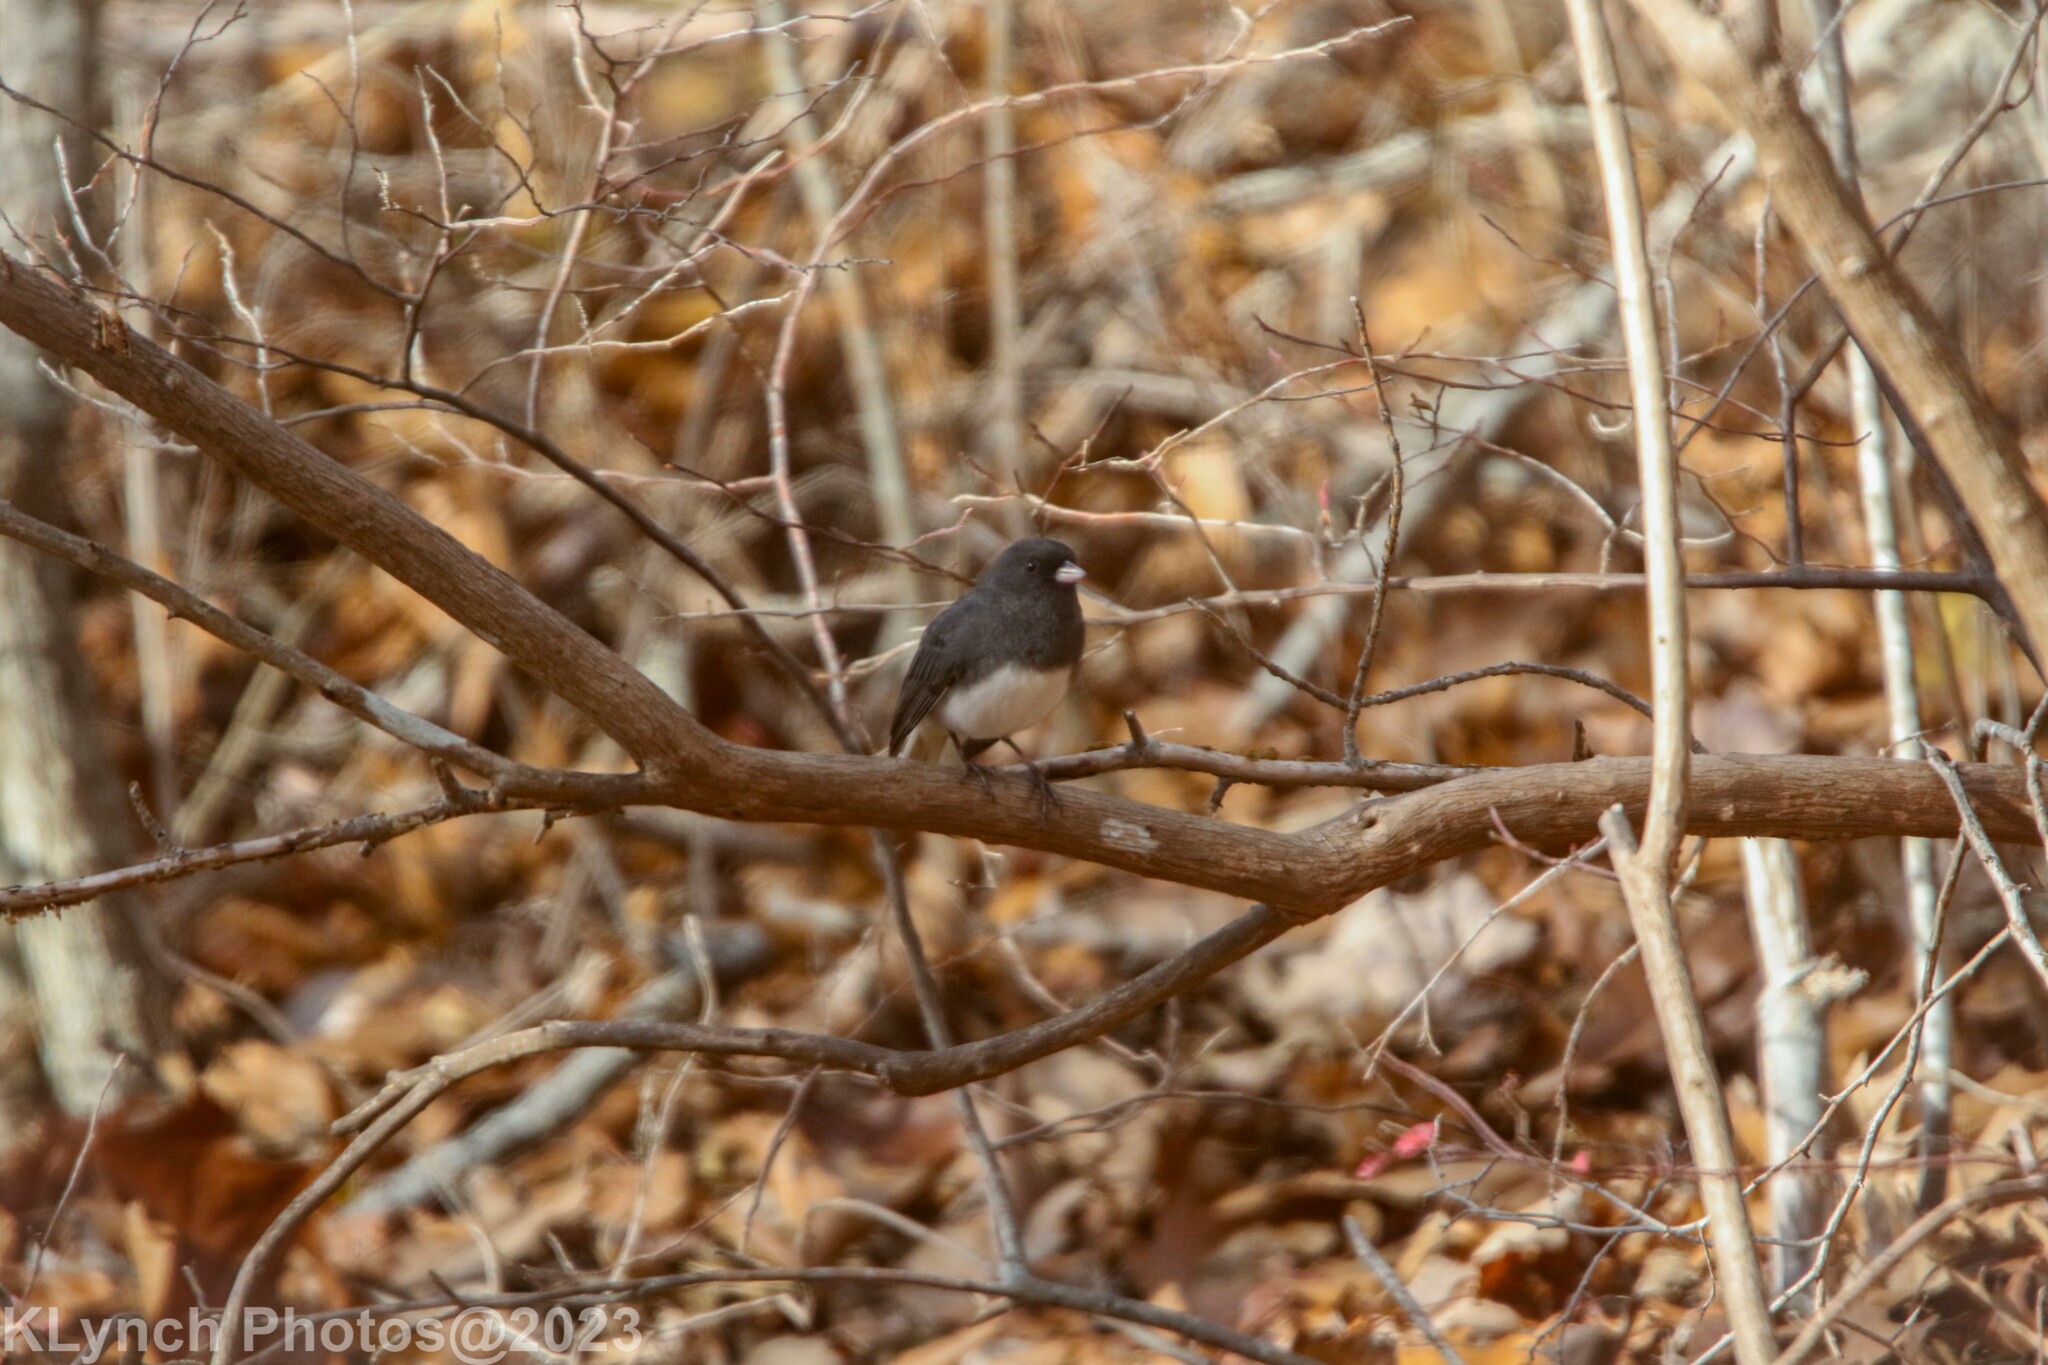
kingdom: Animalia
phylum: Chordata
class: Aves
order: Passeriformes
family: Passerellidae
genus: Junco
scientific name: Junco hyemalis
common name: Dark-eyed junco
